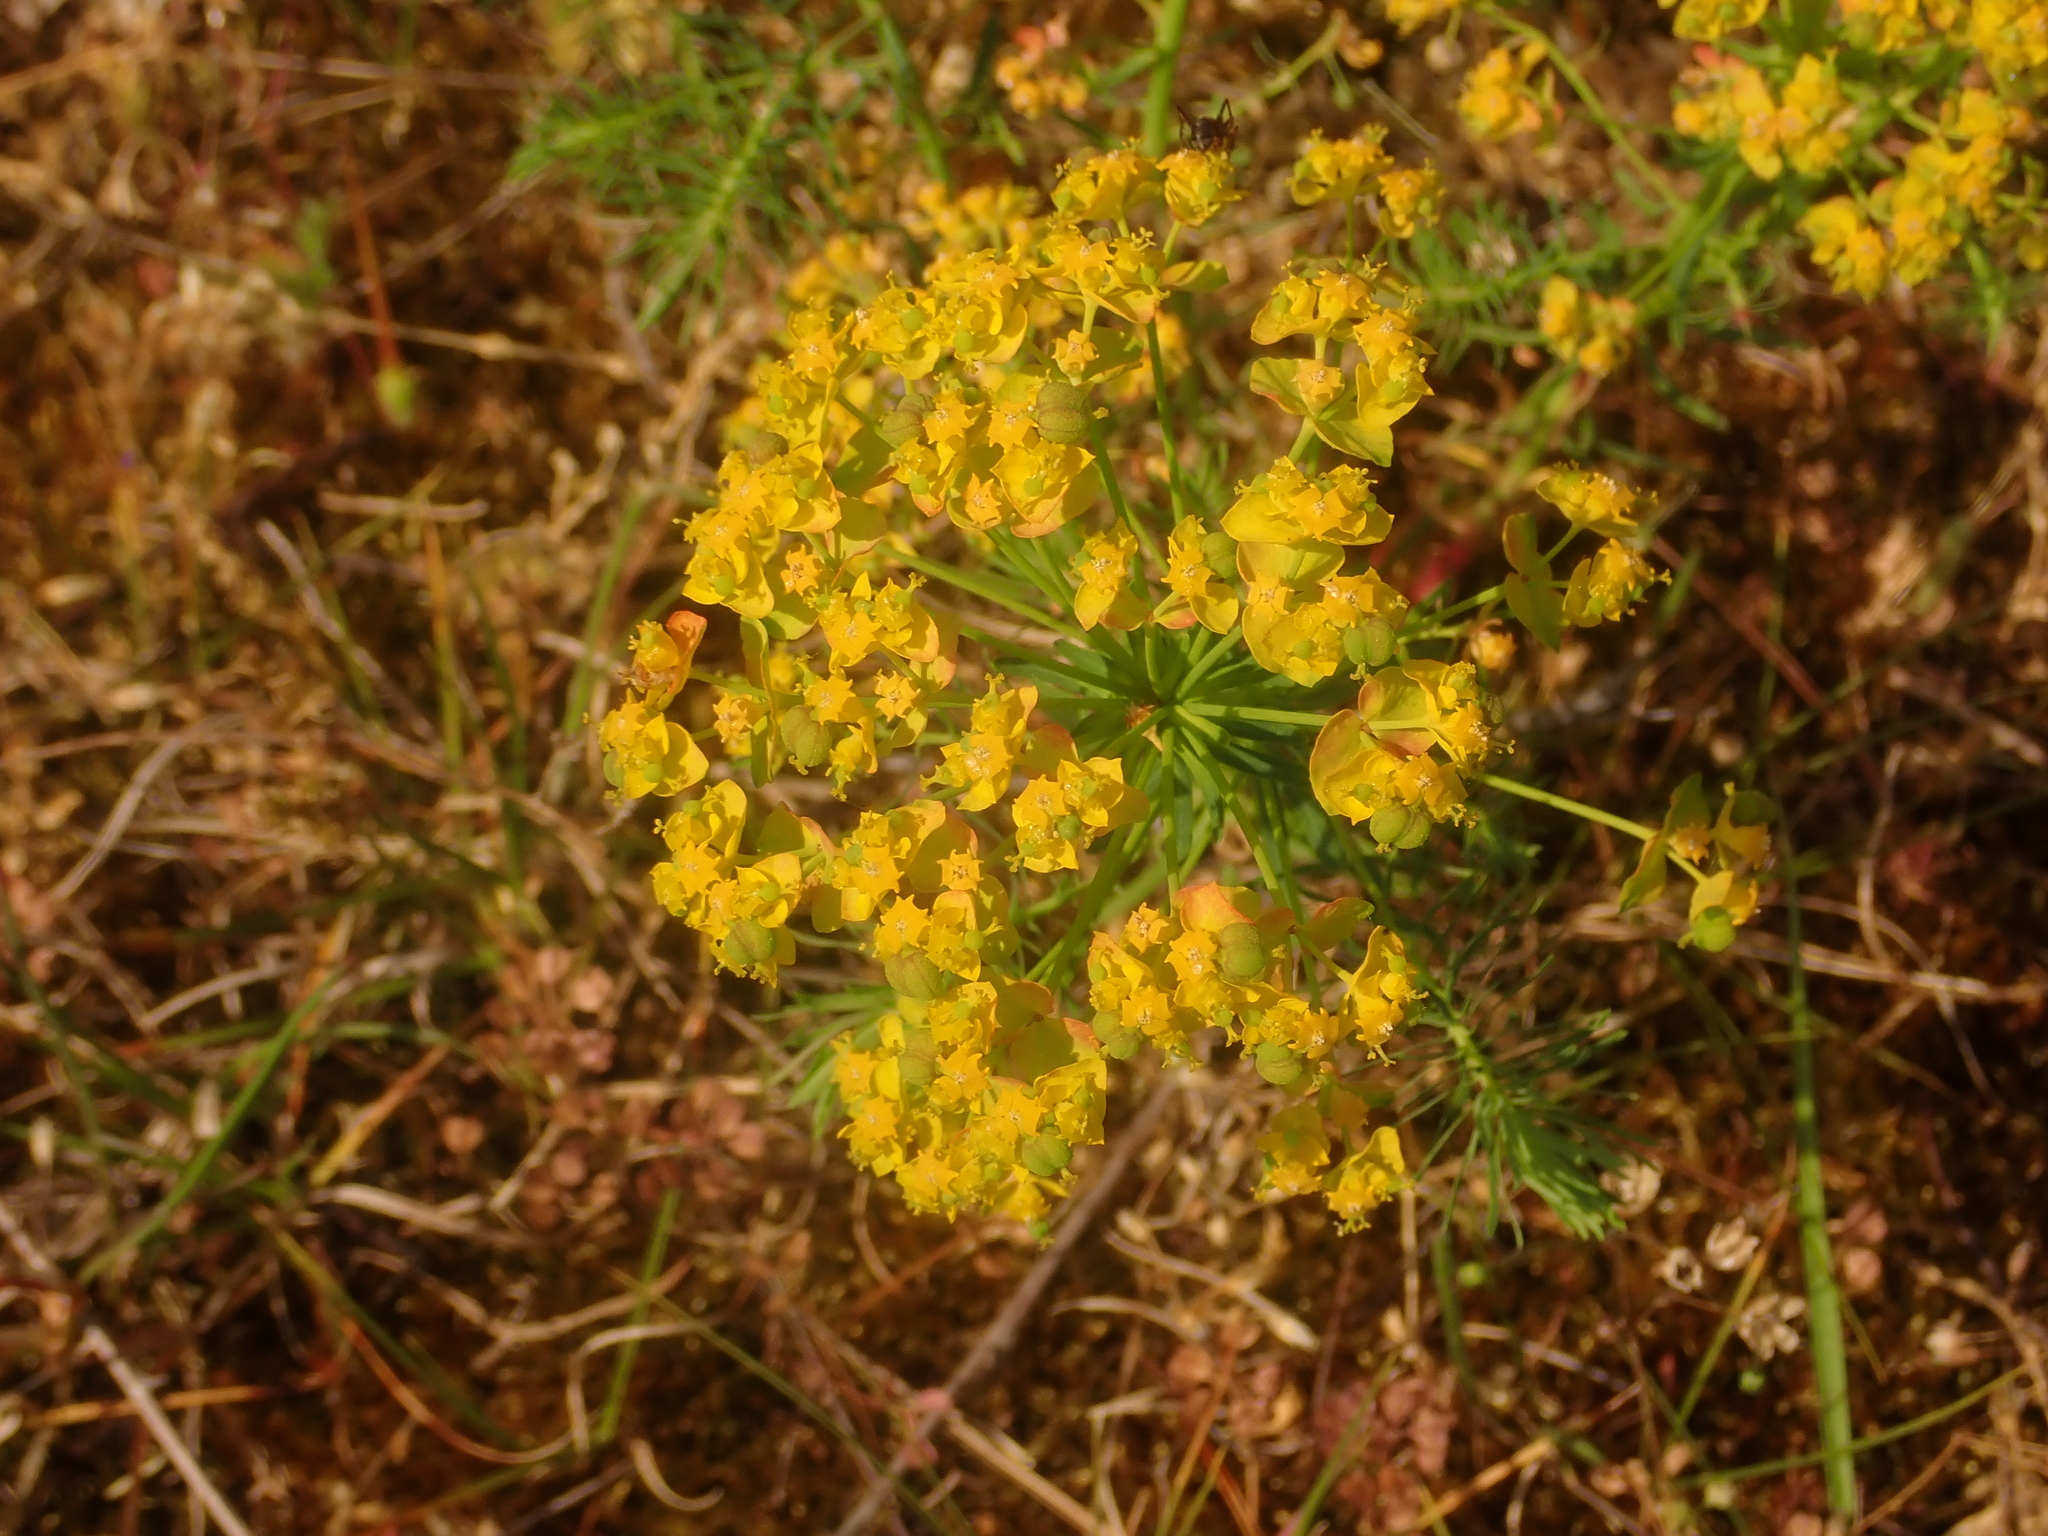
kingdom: Plantae
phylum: Tracheophyta
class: Magnoliopsida
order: Malpighiales
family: Euphorbiaceae
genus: Euphorbia
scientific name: Euphorbia cyparissias
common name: Cypress spurge
